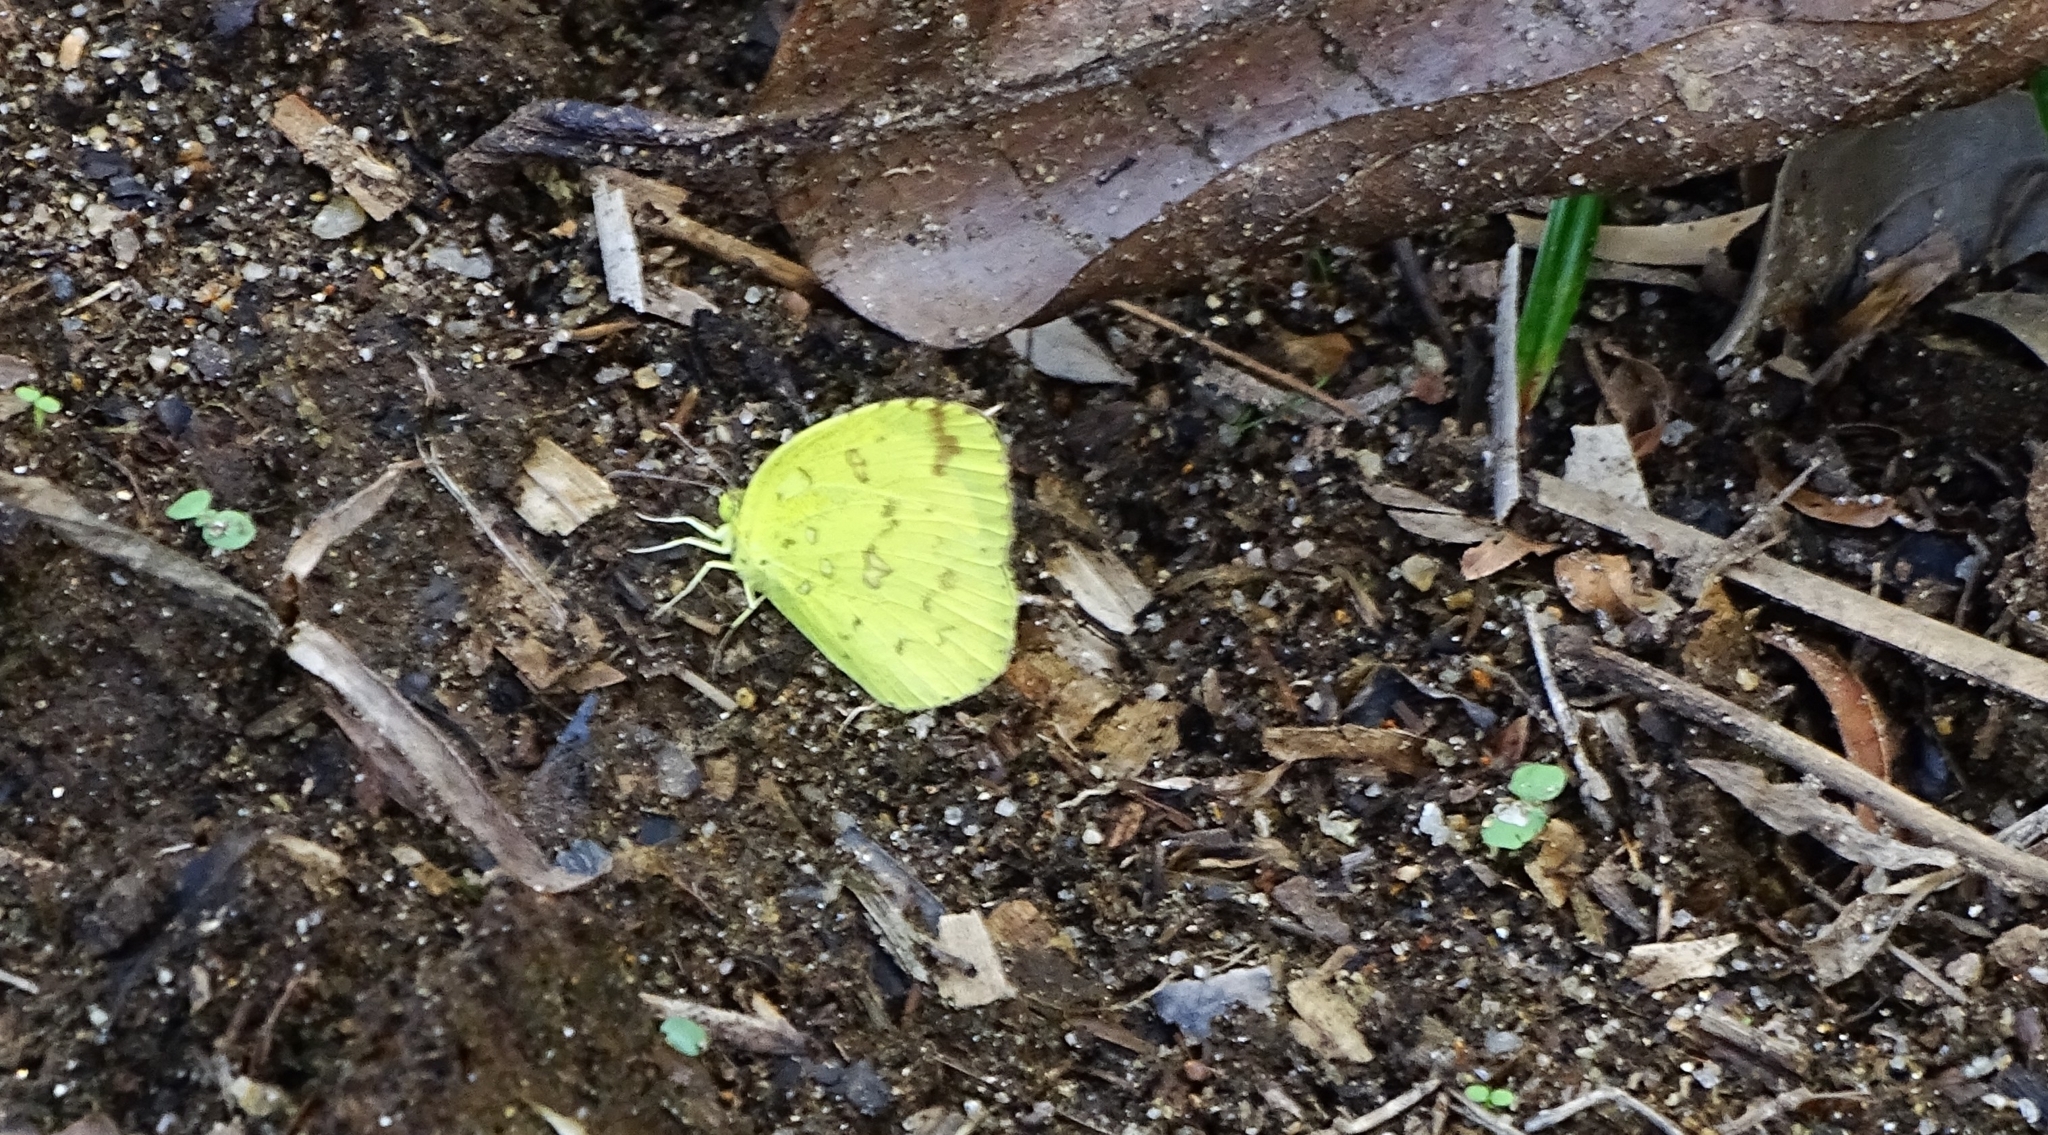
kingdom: Animalia
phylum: Arthropoda
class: Insecta
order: Lepidoptera
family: Pieridae
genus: Eurema
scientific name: Eurema hecabe
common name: Pale grass yellow
